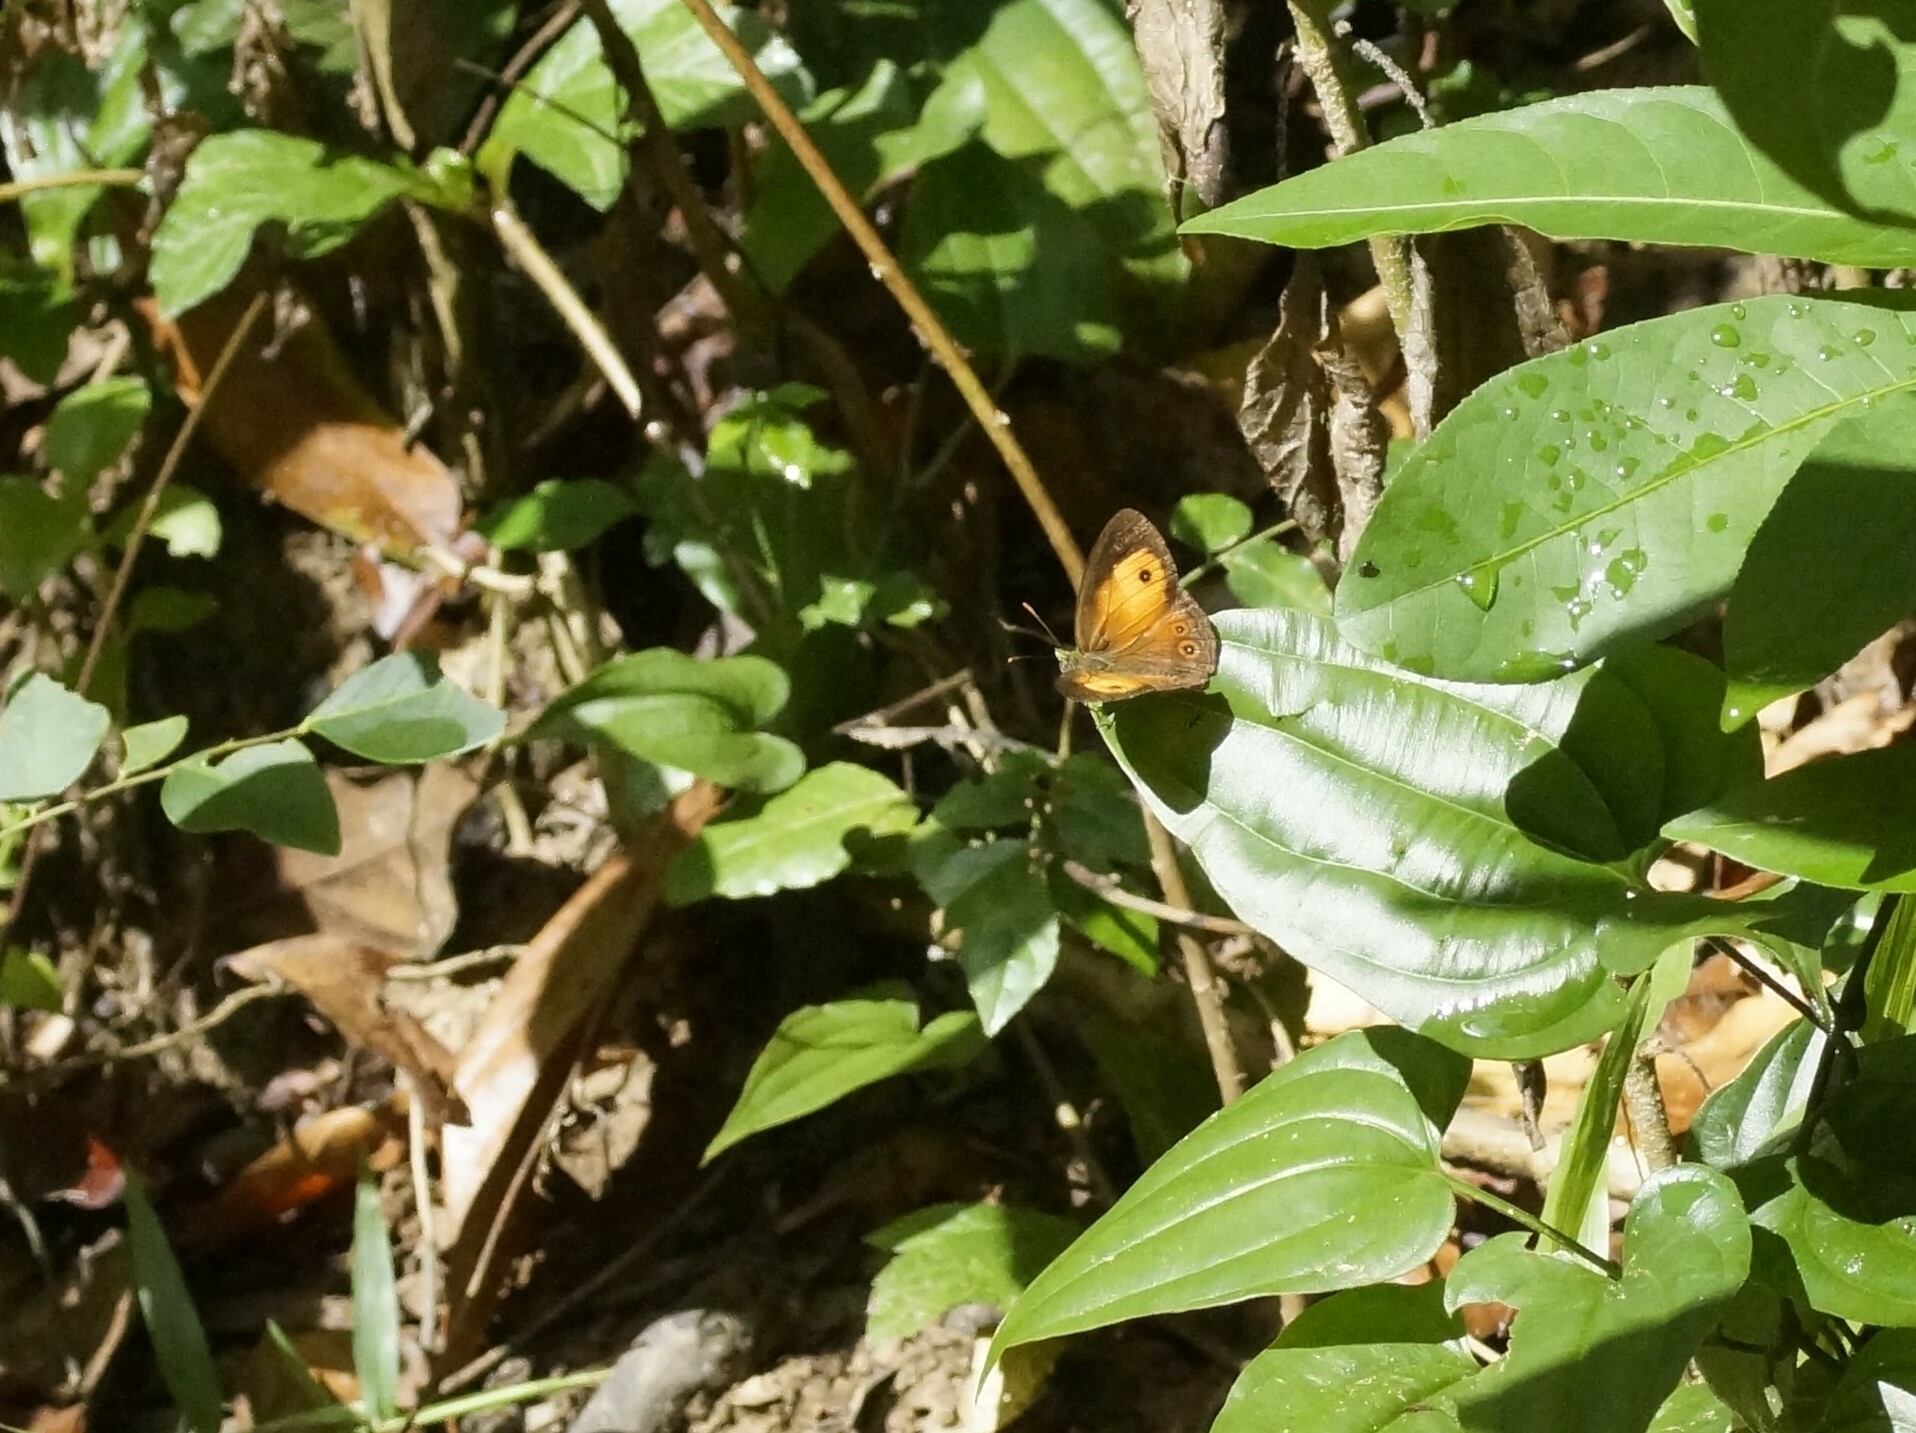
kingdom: Animalia
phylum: Arthropoda
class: Insecta
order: Lepidoptera
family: Nymphalidae
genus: Mycalesis
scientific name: Mycalesis terminus
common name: Orange bushbrown
